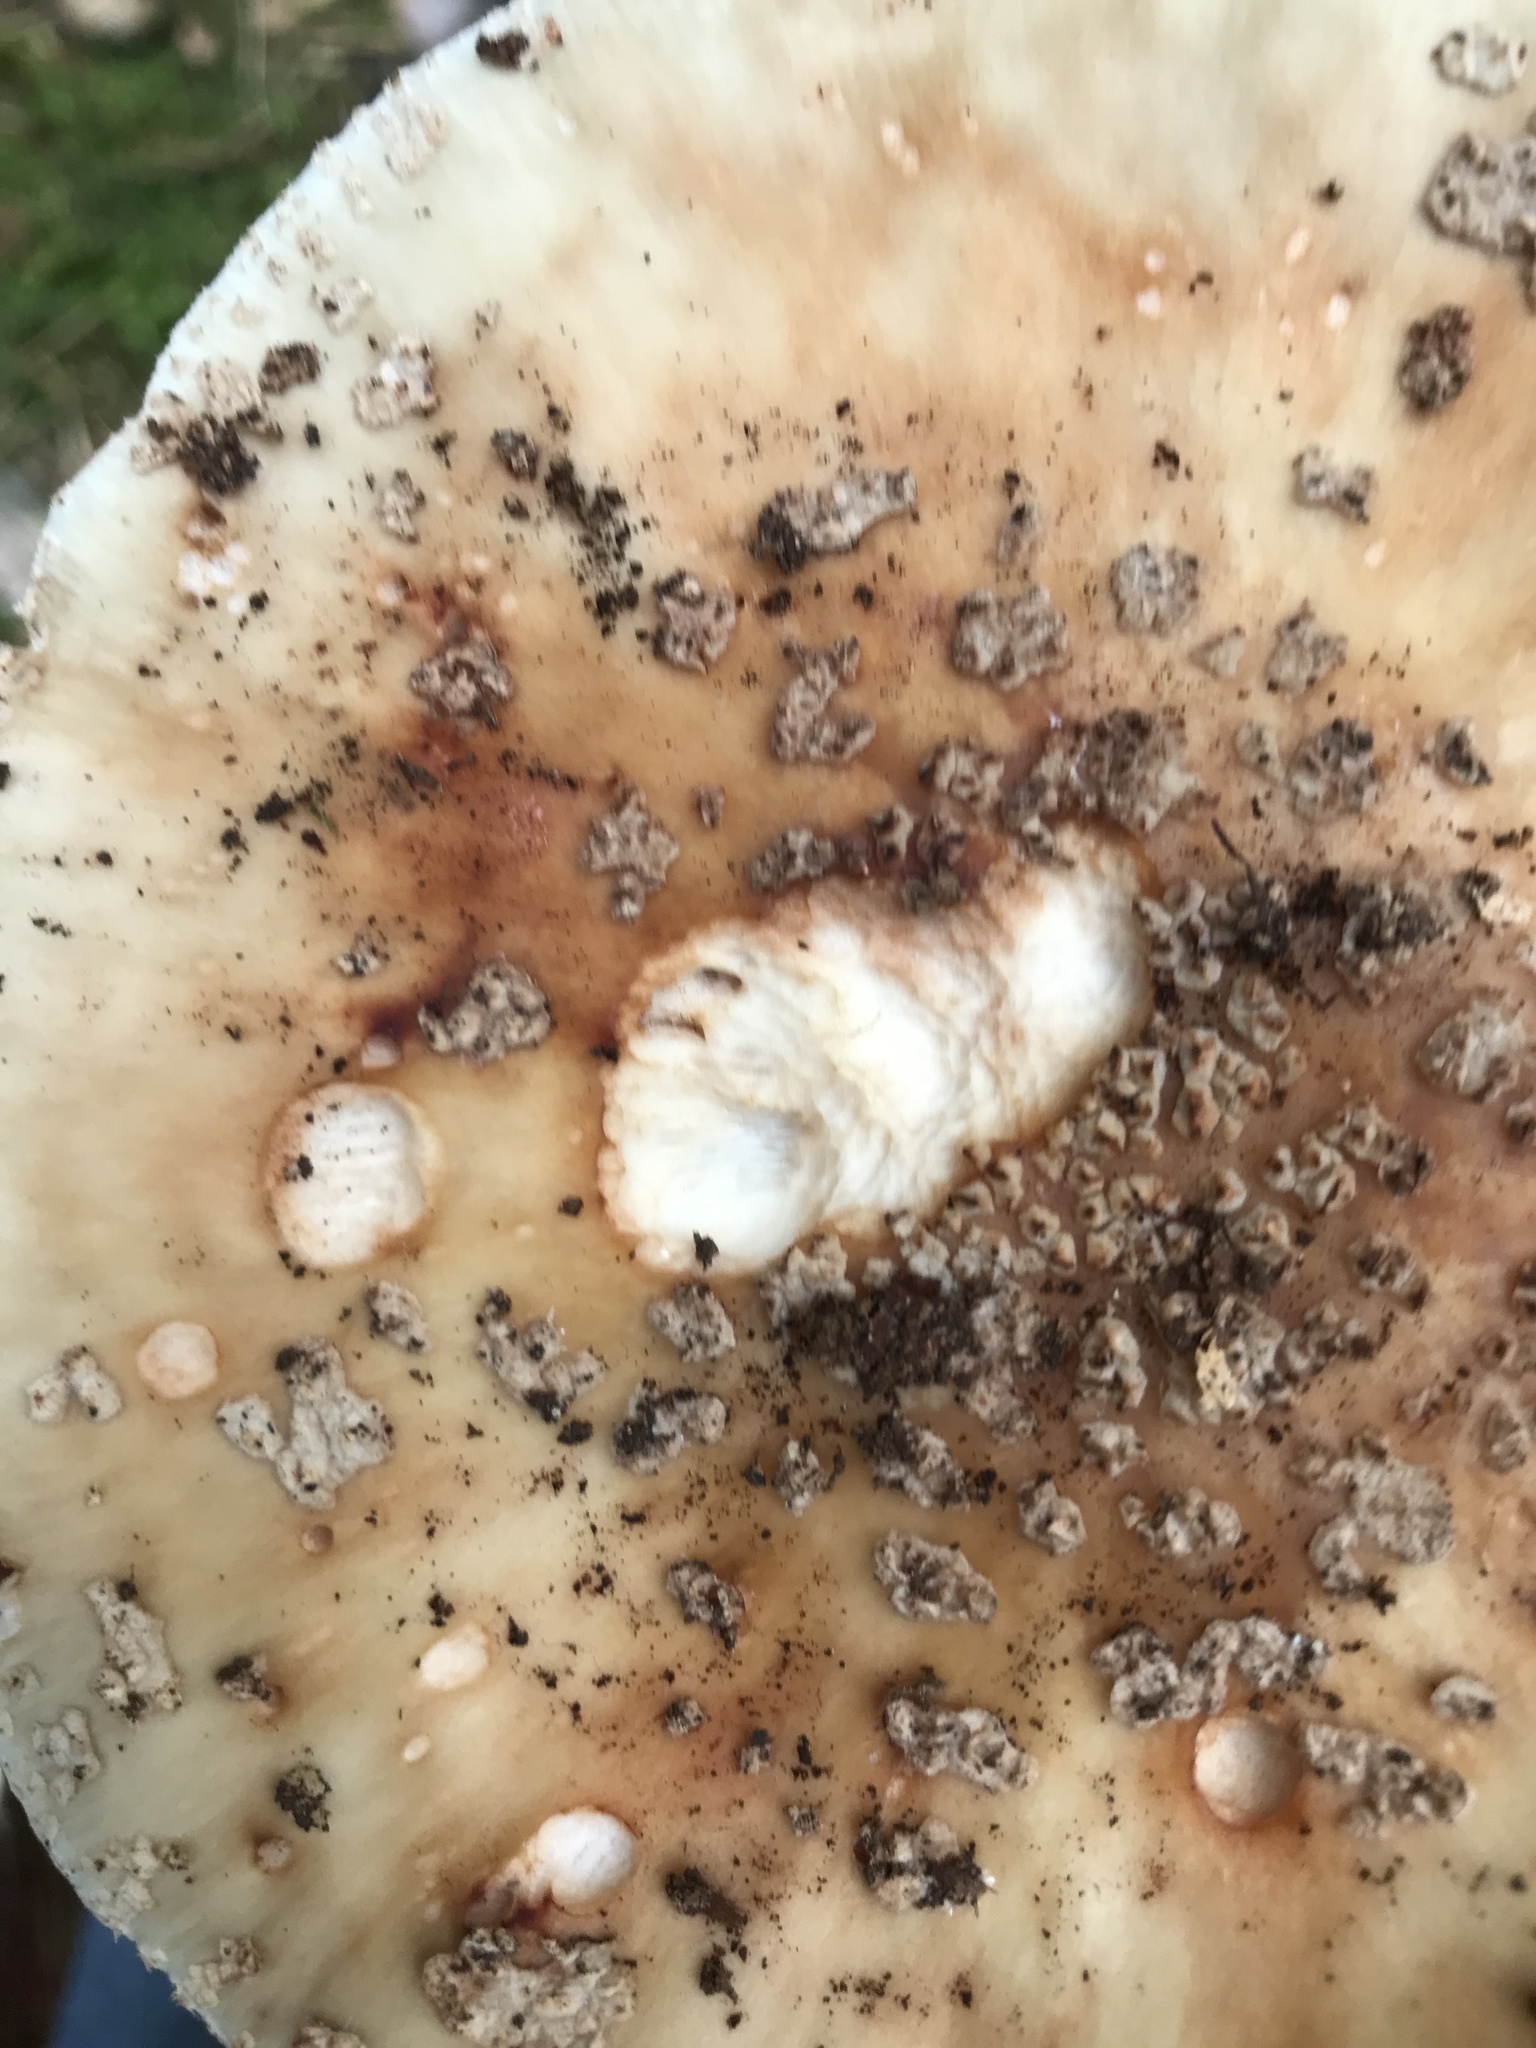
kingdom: Fungi
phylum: Basidiomycota
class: Agaricomycetes
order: Agaricales
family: Amanitaceae
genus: Amanita
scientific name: Amanita rubescens
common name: Blusher
